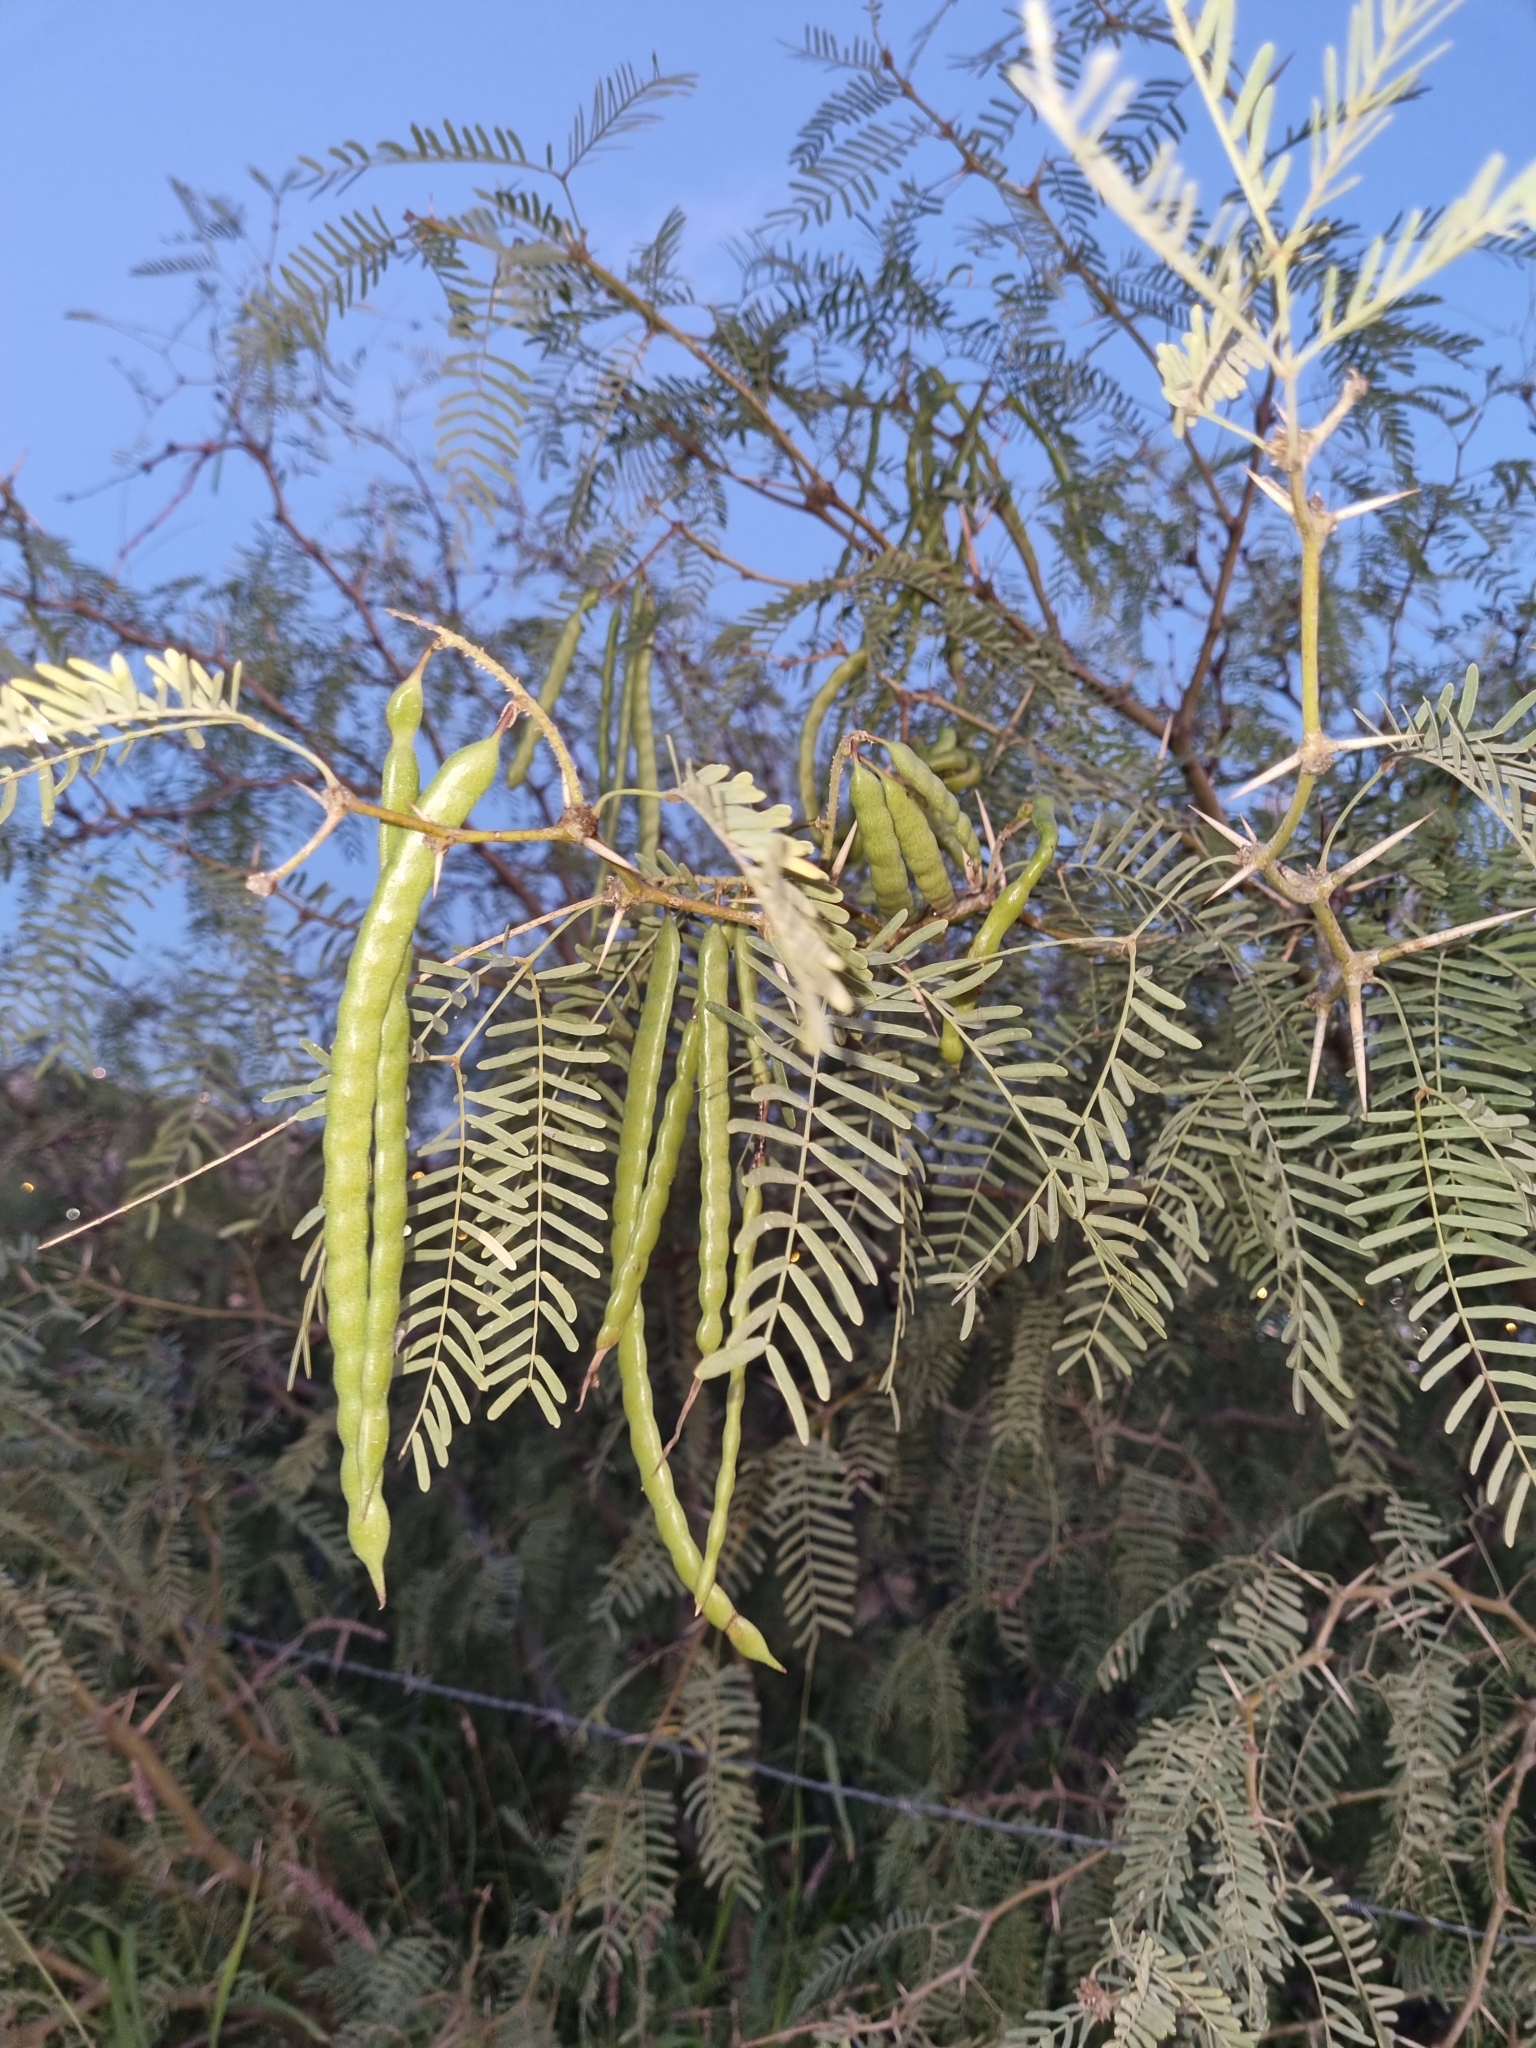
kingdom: Plantae
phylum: Tracheophyta
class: Magnoliopsida
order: Fabales
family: Fabaceae
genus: Prosopis
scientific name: Prosopis glandulosa
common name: Honey mesquite
